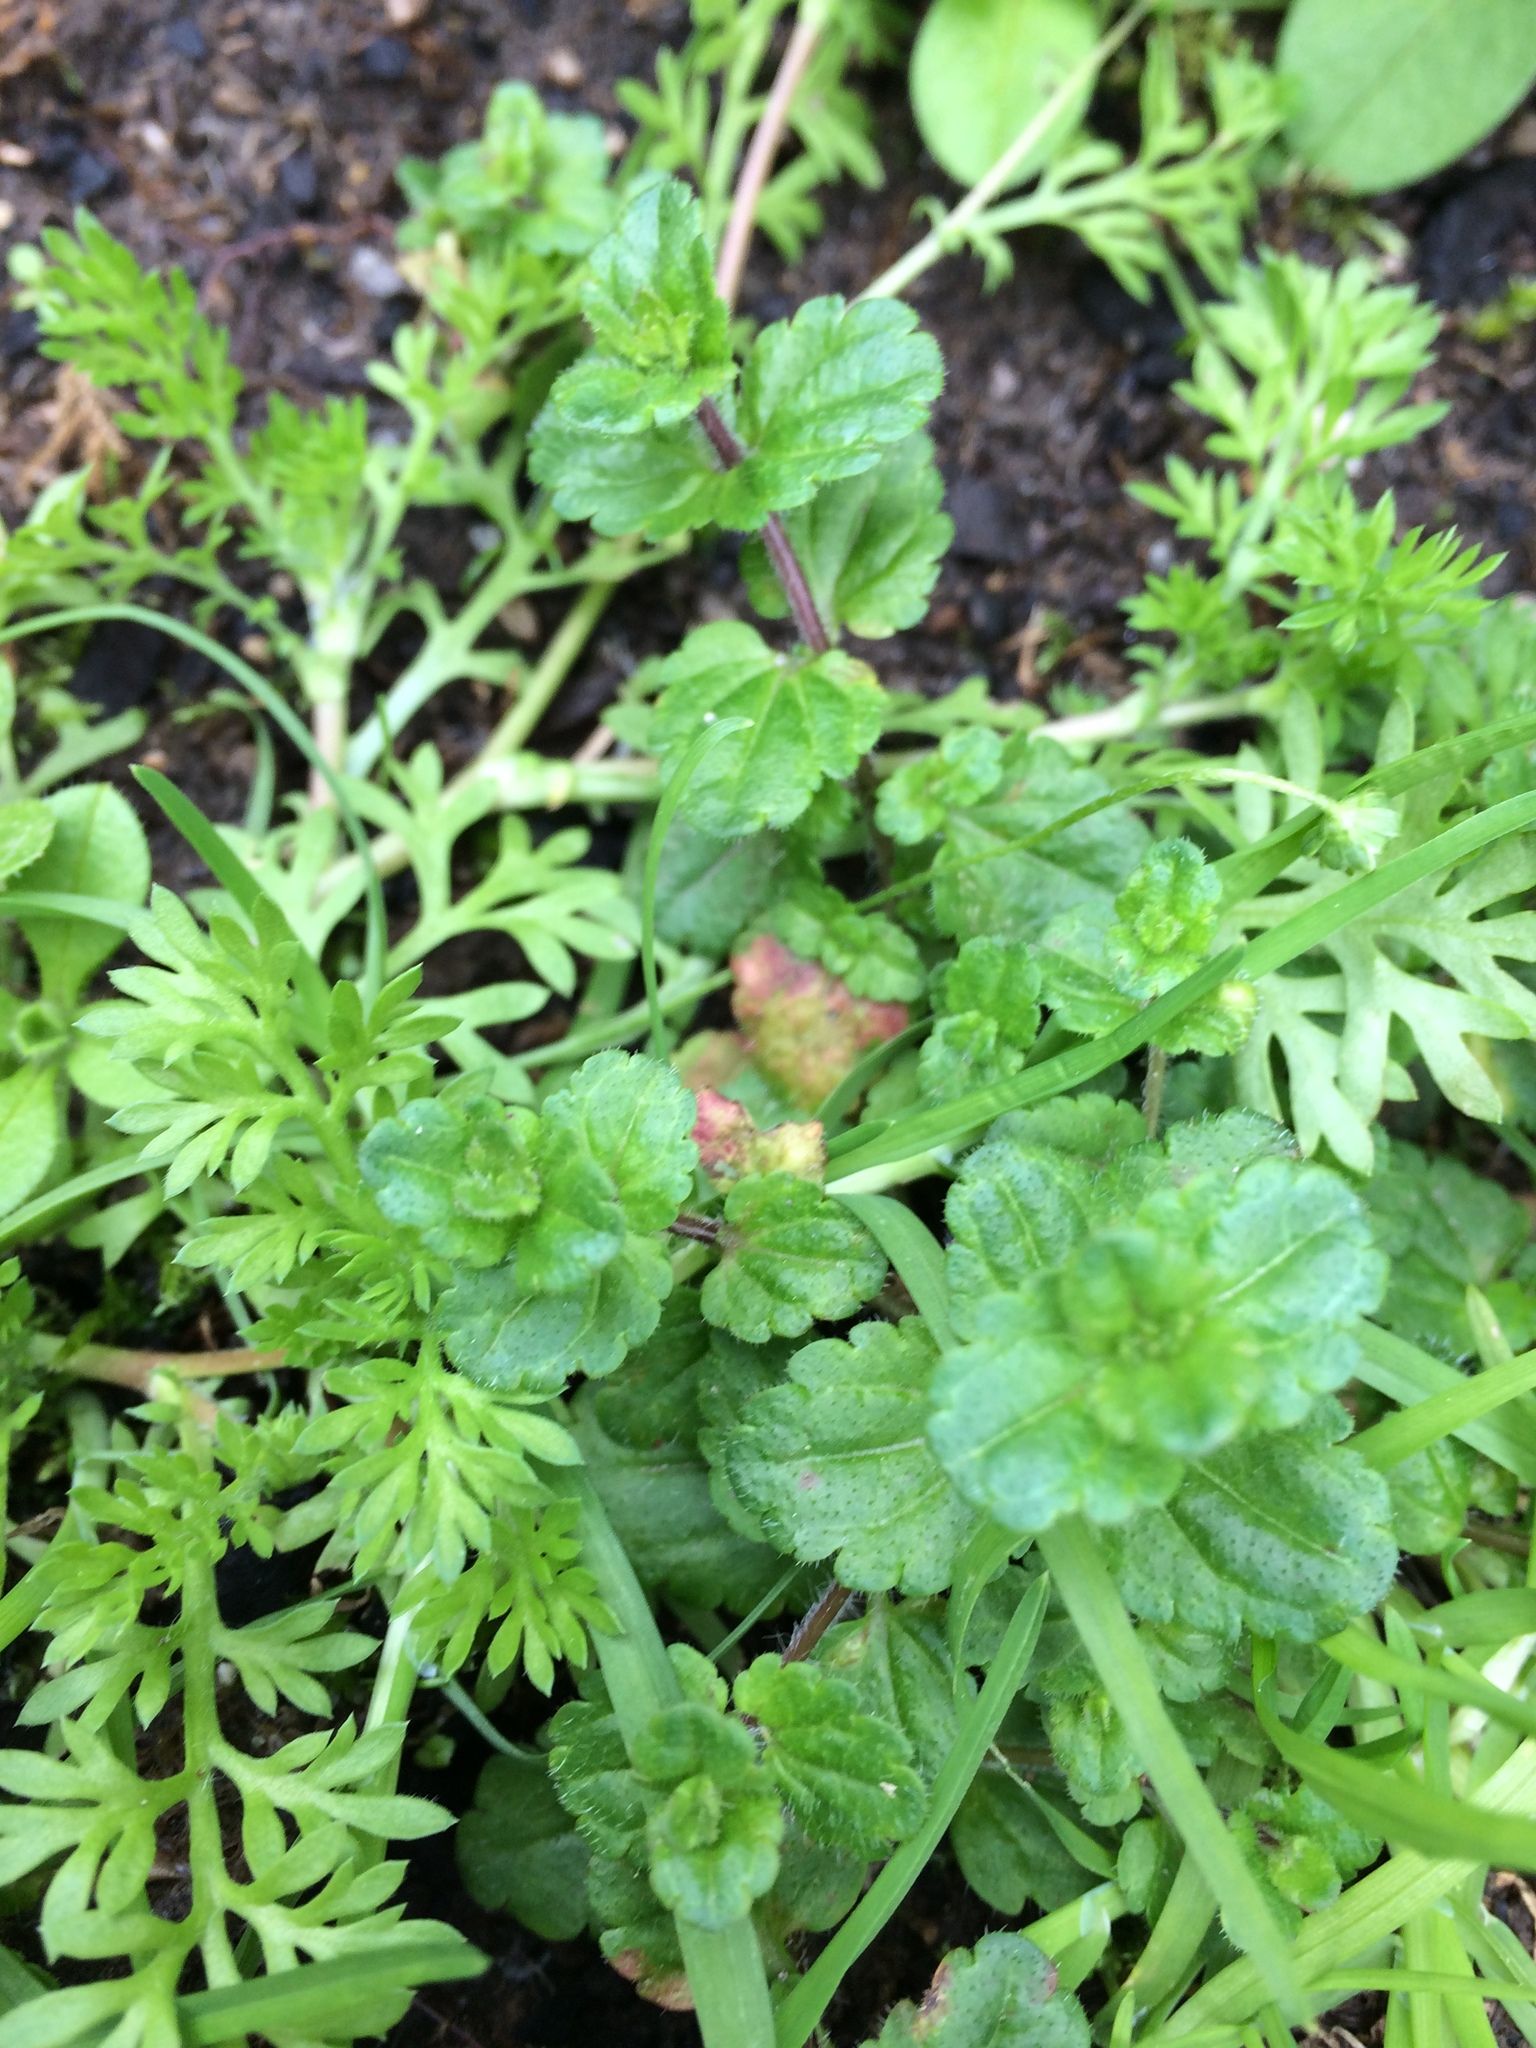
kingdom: Plantae
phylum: Tracheophyta
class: Magnoliopsida
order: Lamiales
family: Plantaginaceae
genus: Veronica
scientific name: Veronica persica
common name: Common field-speedwell
